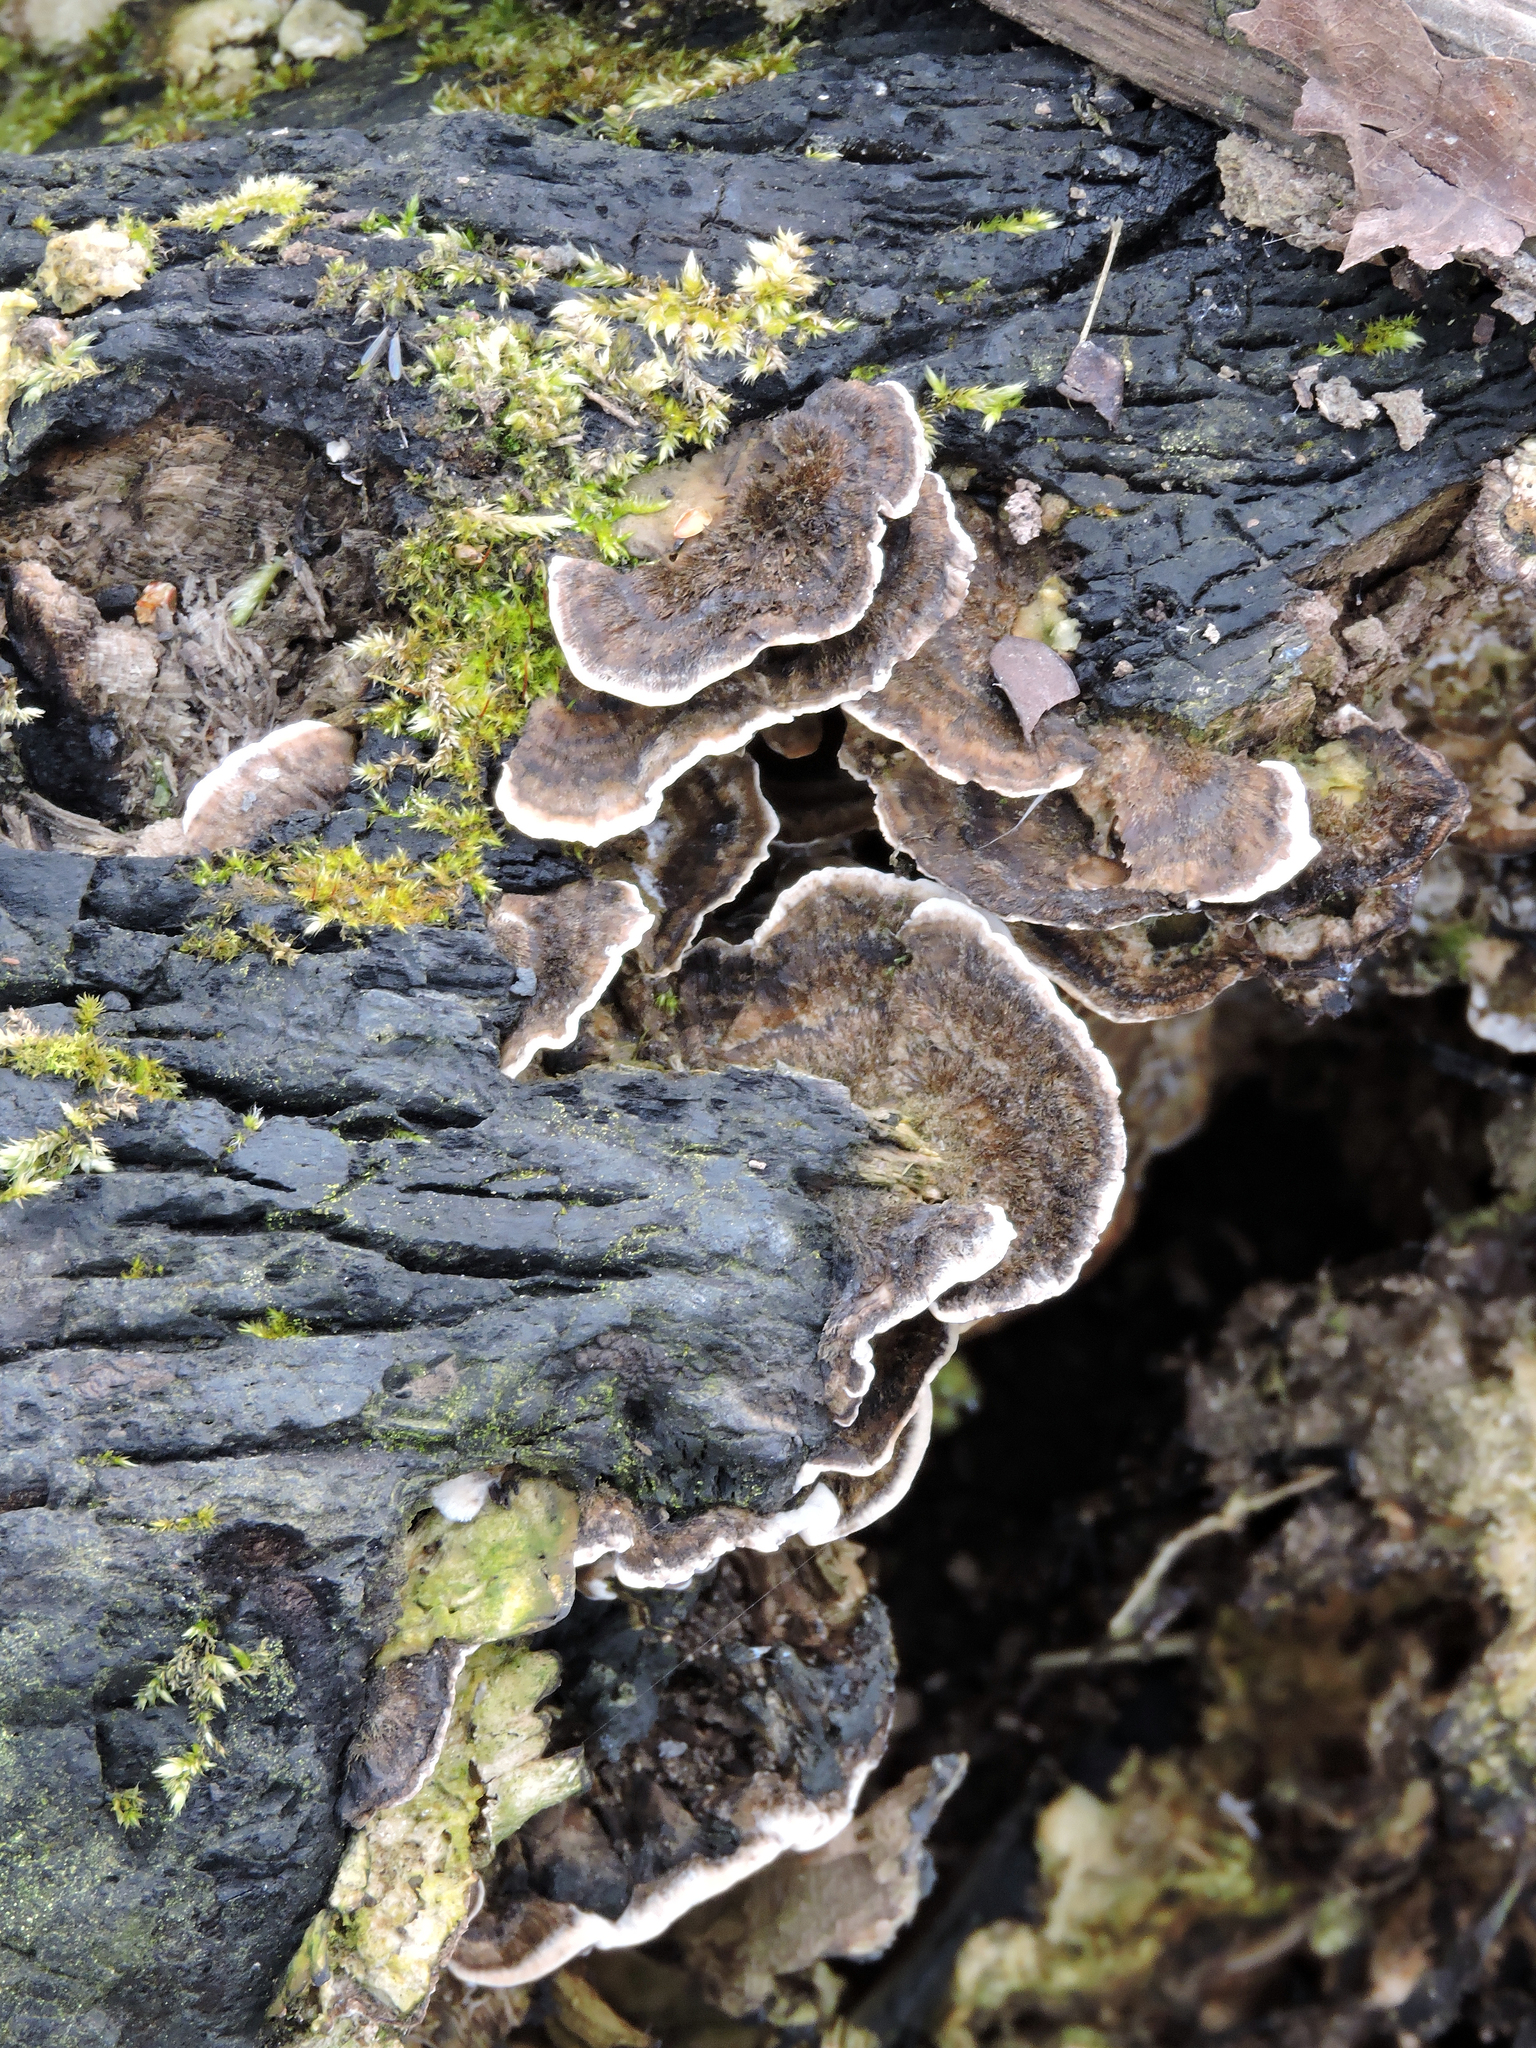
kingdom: Fungi
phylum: Basidiomycota
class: Agaricomycetes
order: Polyporales
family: Phanerochaetaceae
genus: Bjerkandera
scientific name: Bjerkandera adusta
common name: Smoky bracket
